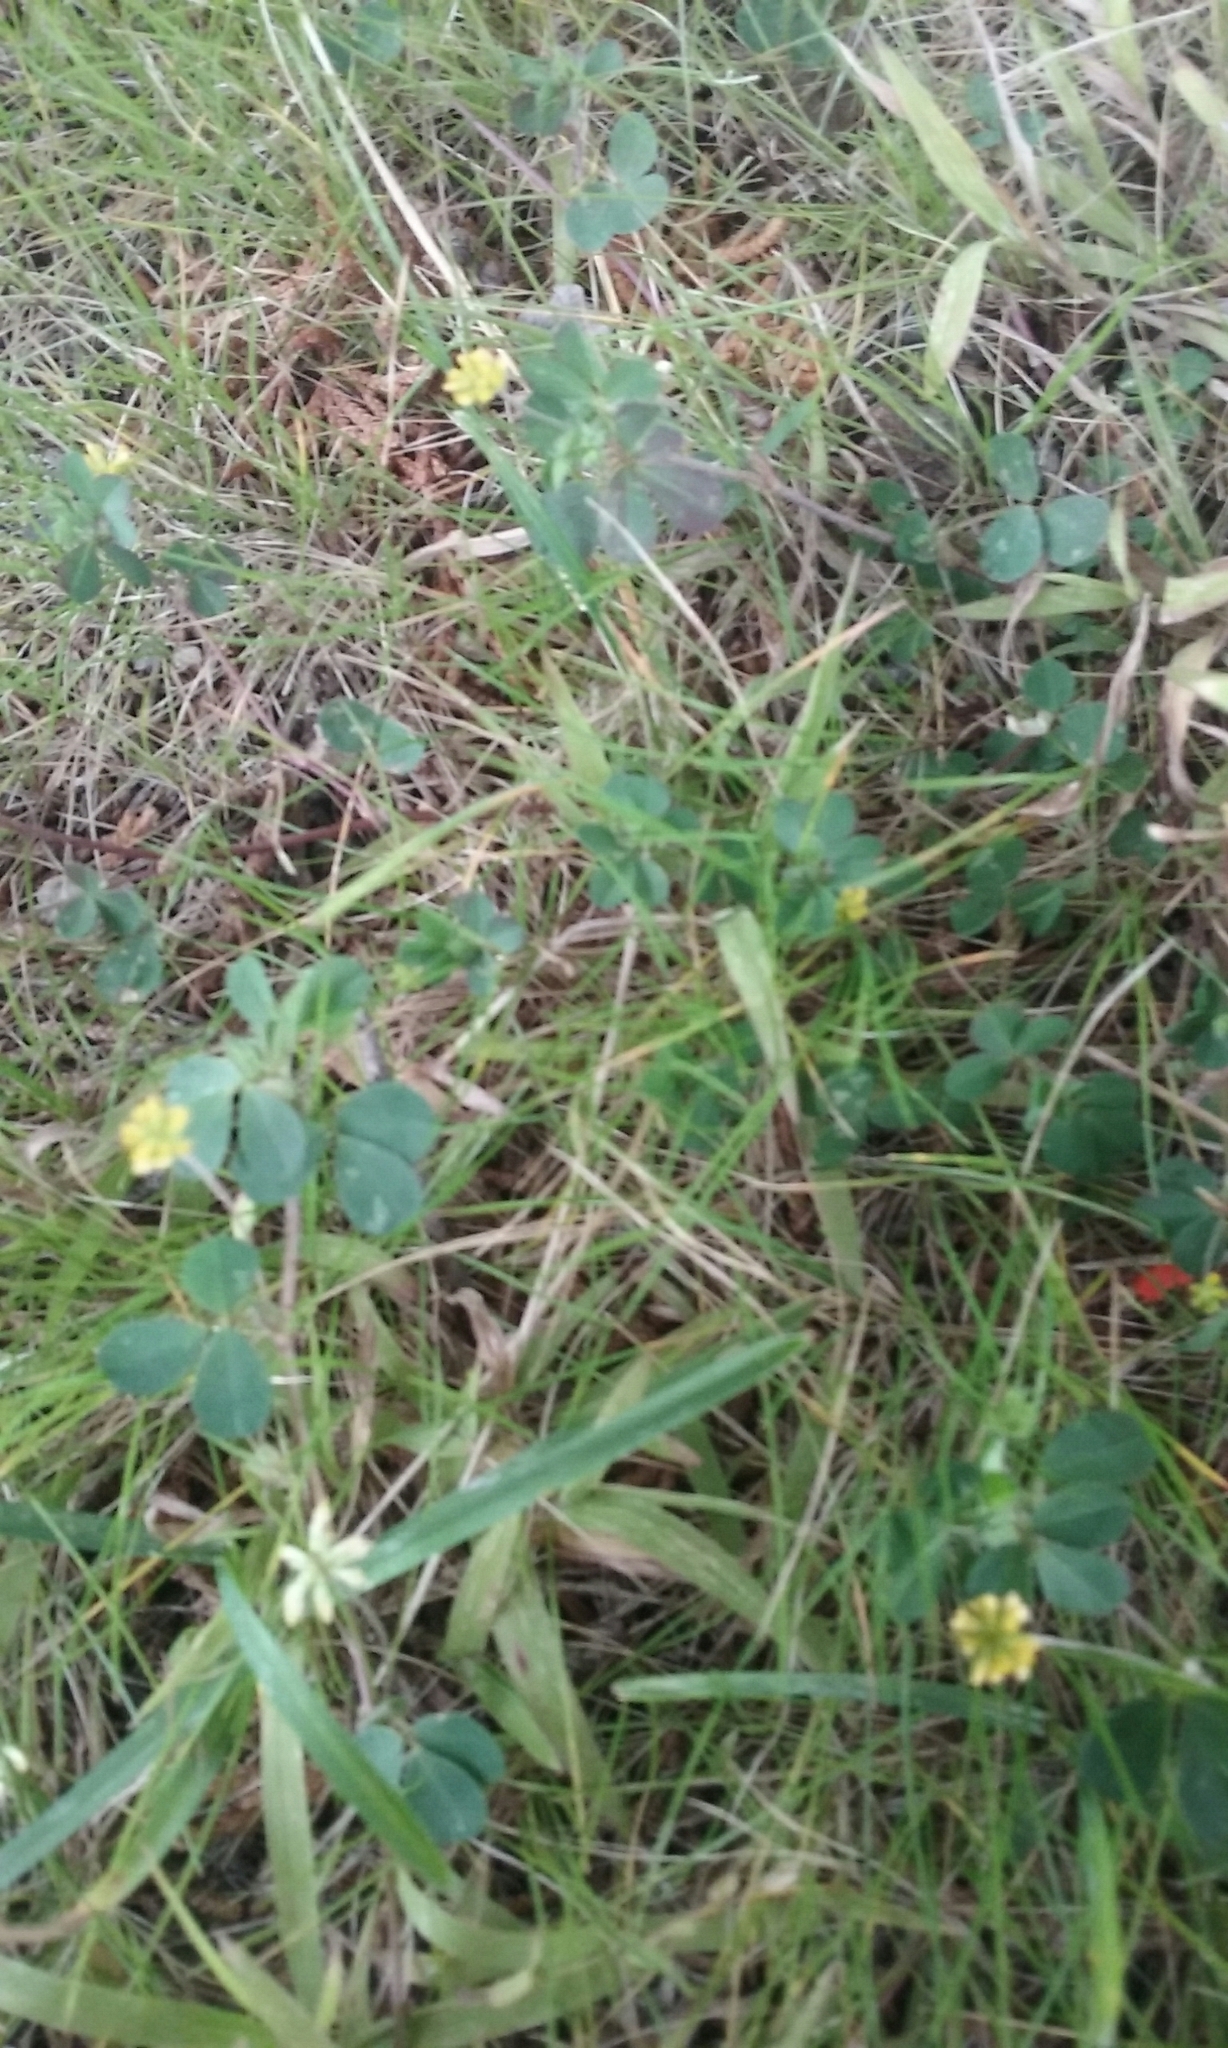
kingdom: Plantae
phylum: Tracheophyta
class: Magnoliopsida
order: Fabales
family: Fabaceae
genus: Trifolium
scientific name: Trifolium dubium
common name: Suckling clover
